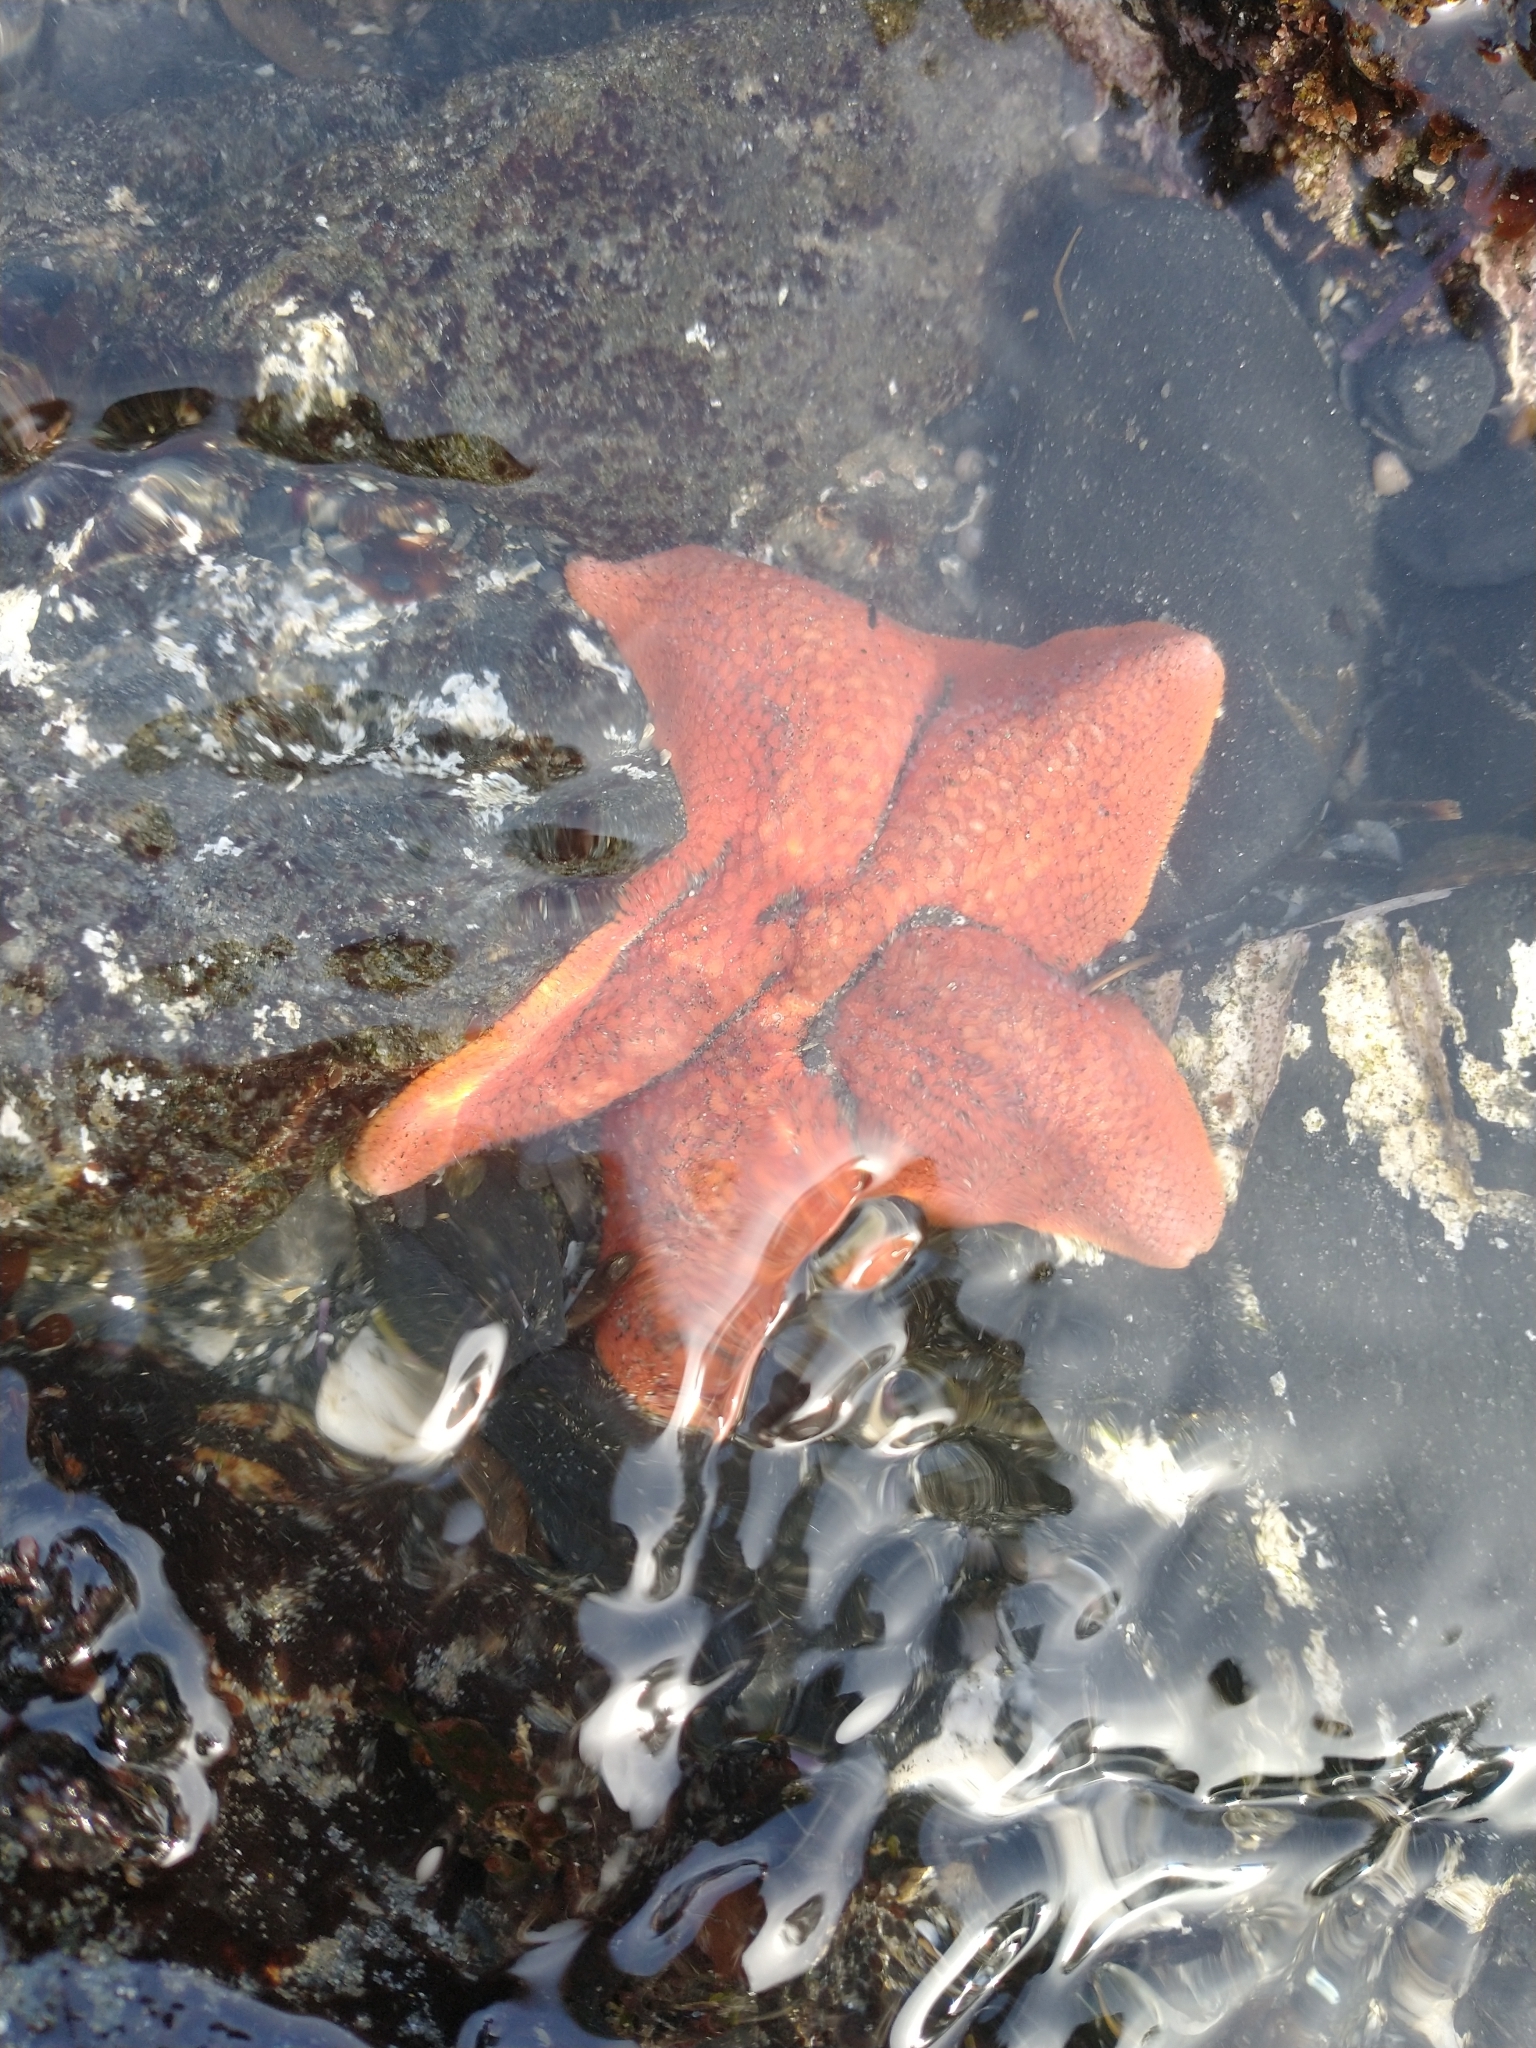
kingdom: Animalia
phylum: Echinodermata
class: Asteroidea
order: Valvatida
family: Asterinidae
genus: Patiria
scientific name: Patiria miniata
